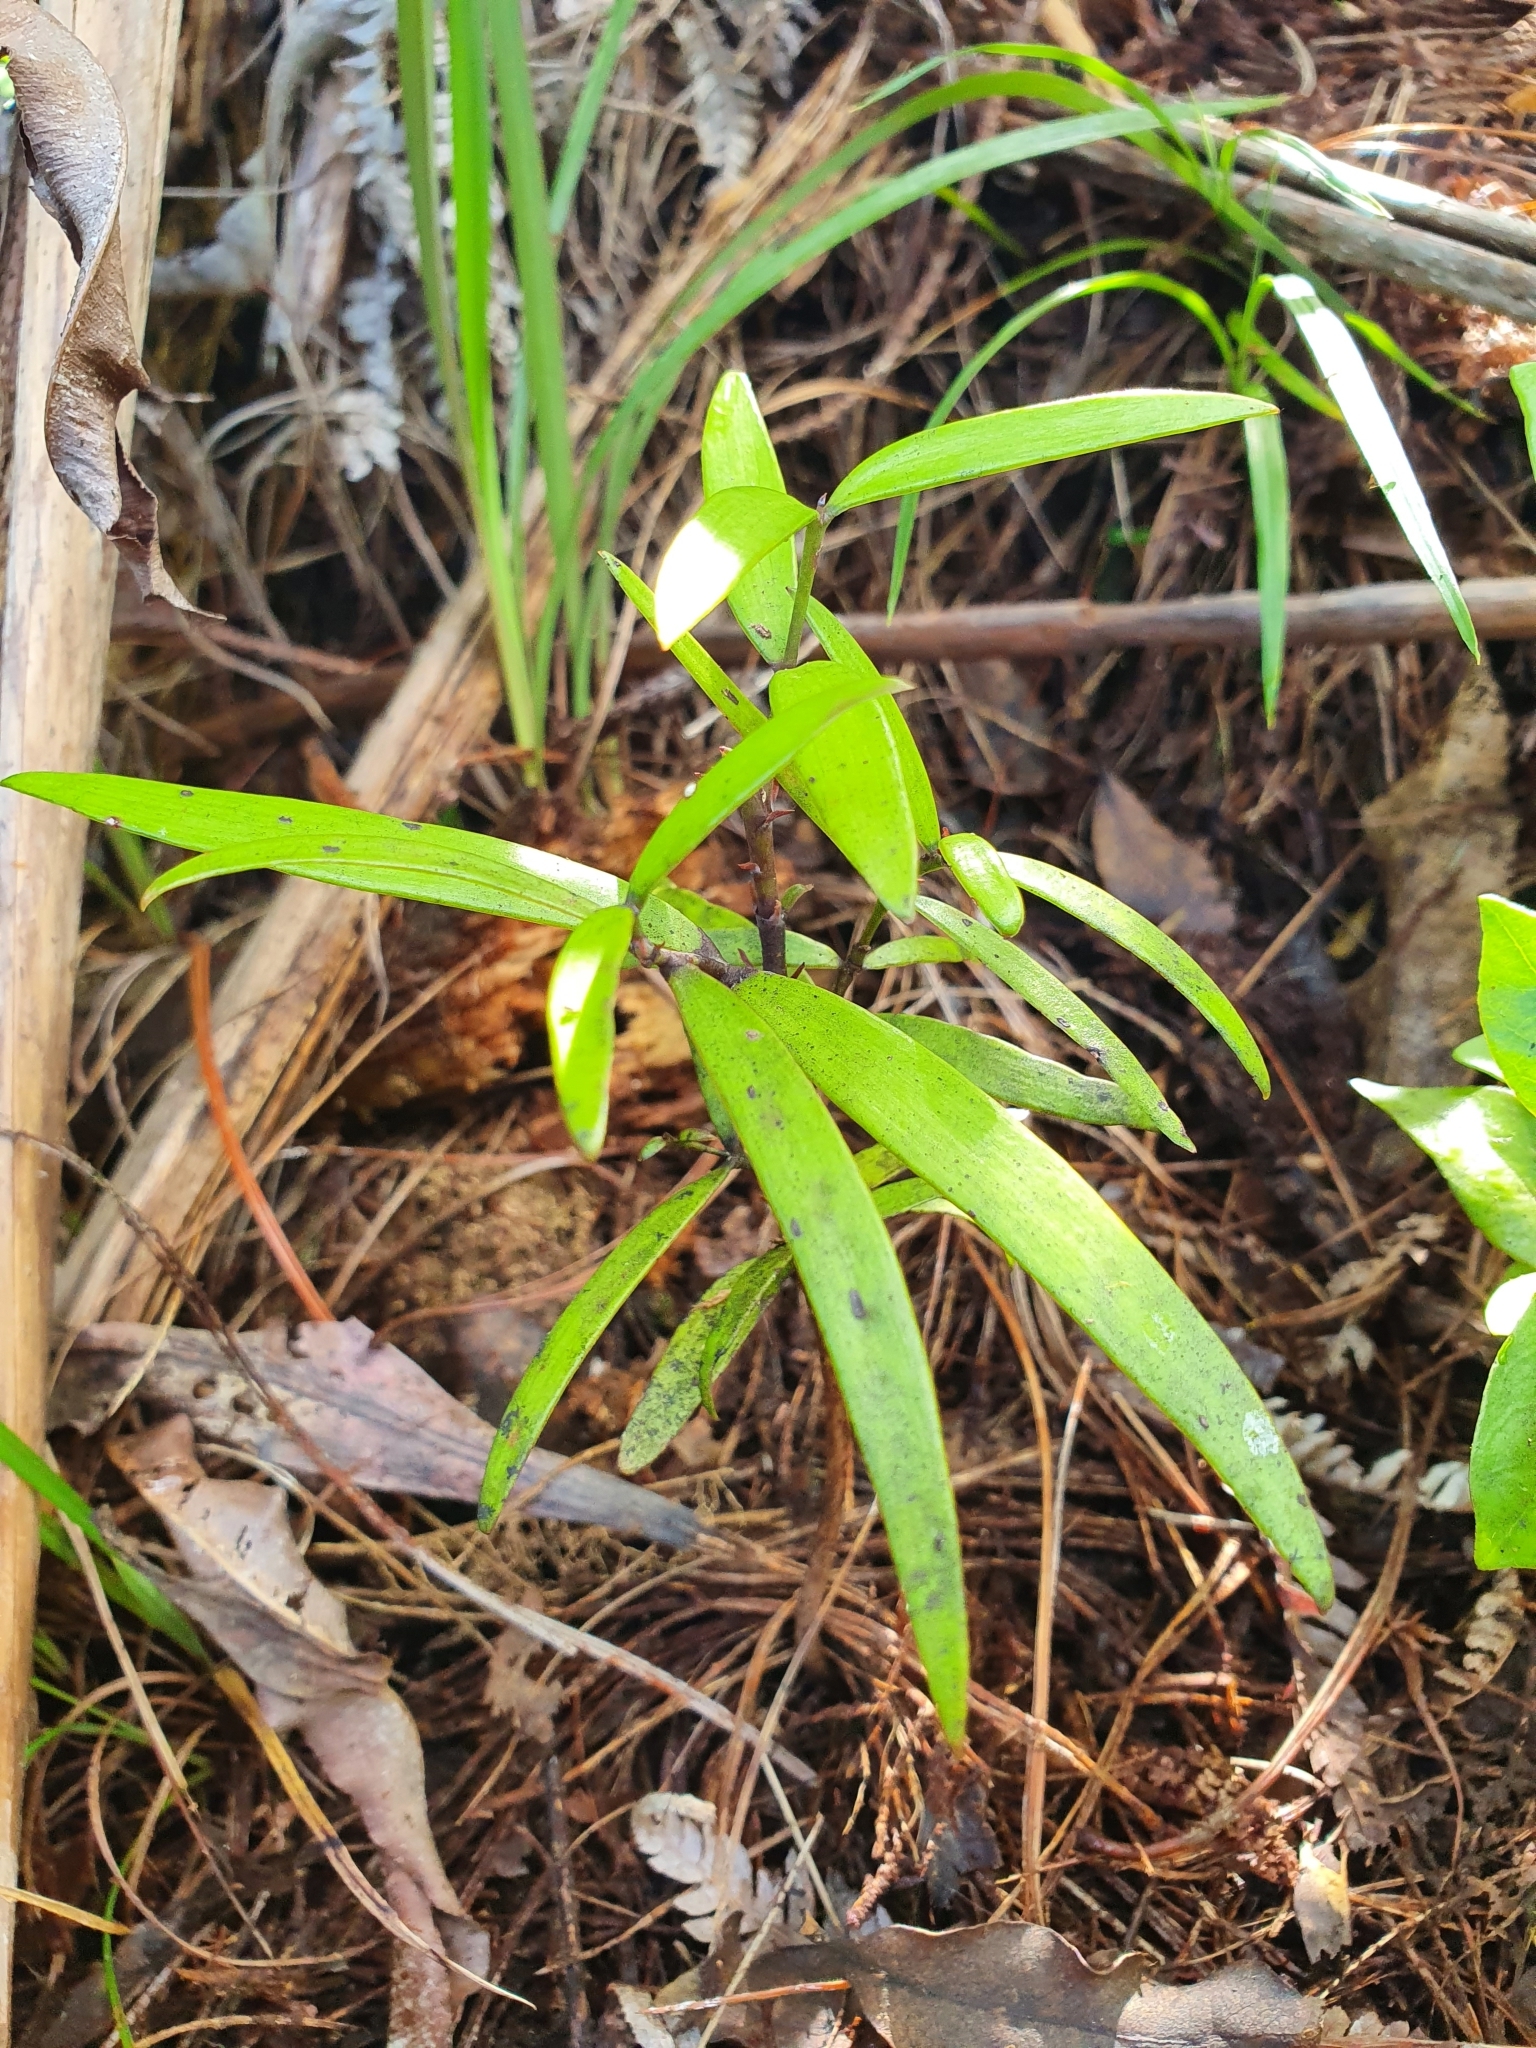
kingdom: Plantae
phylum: Tracheophyta
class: Pinopsida
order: Pinales
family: Araucariaceae
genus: Agathis
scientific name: Agathis australis
